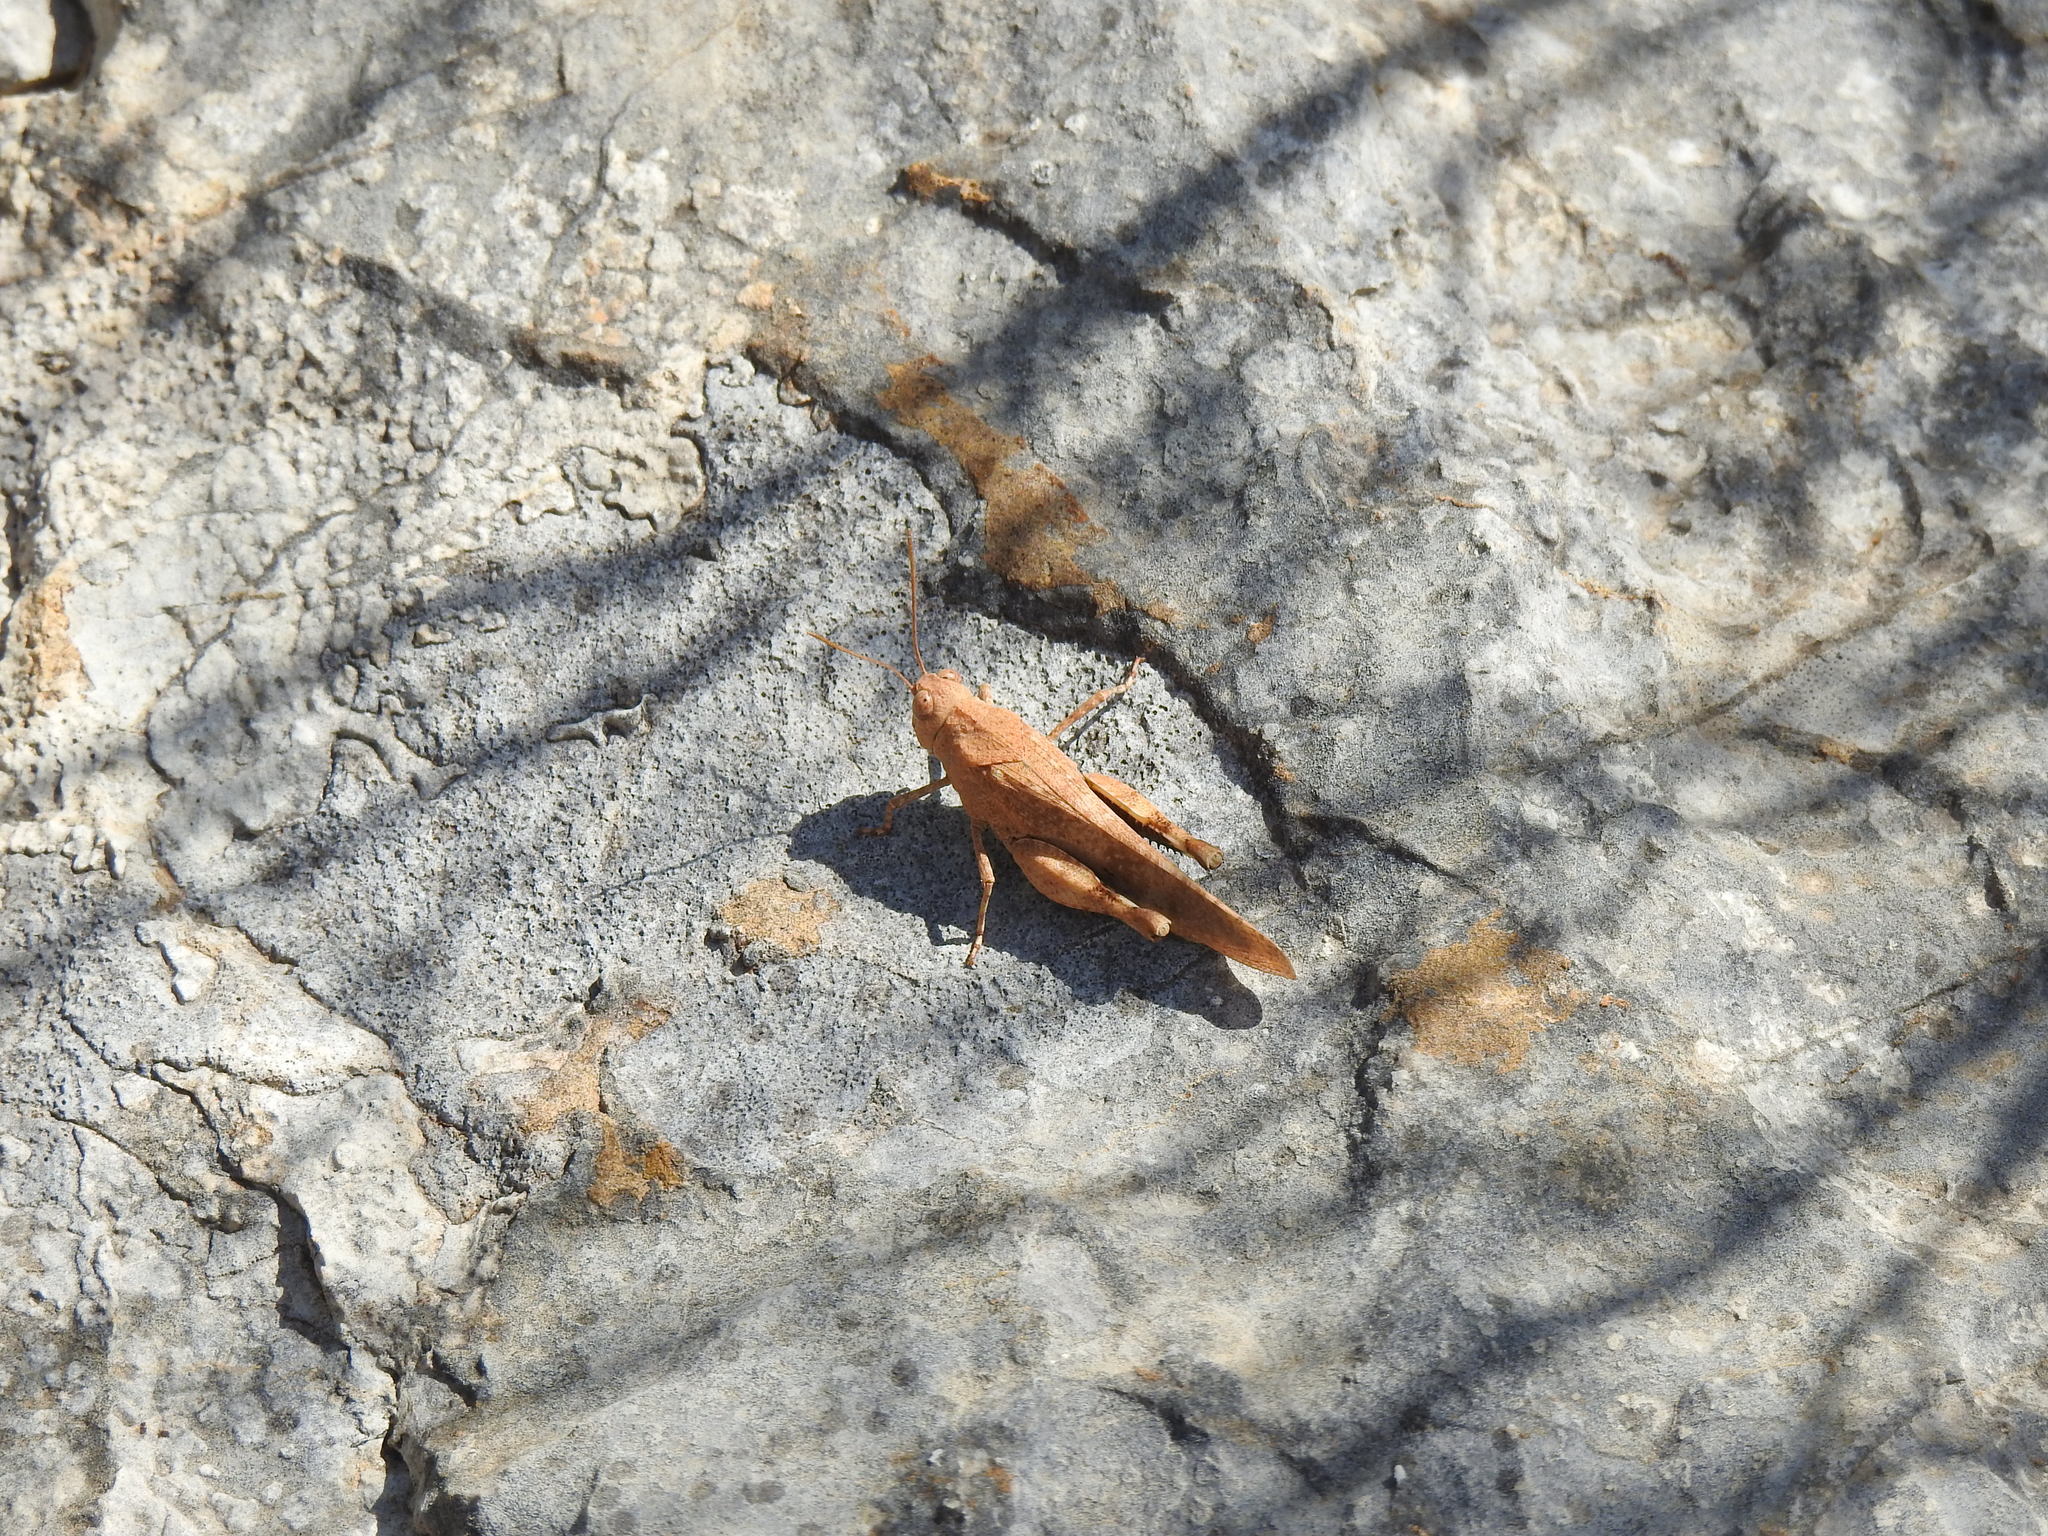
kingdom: Animalia
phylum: Arthropoda
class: Insecta
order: Orthoptera
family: Acrididae
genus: Oedipoda
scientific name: Oedipoda coerulea
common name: Iberian band-winged grasshopper
